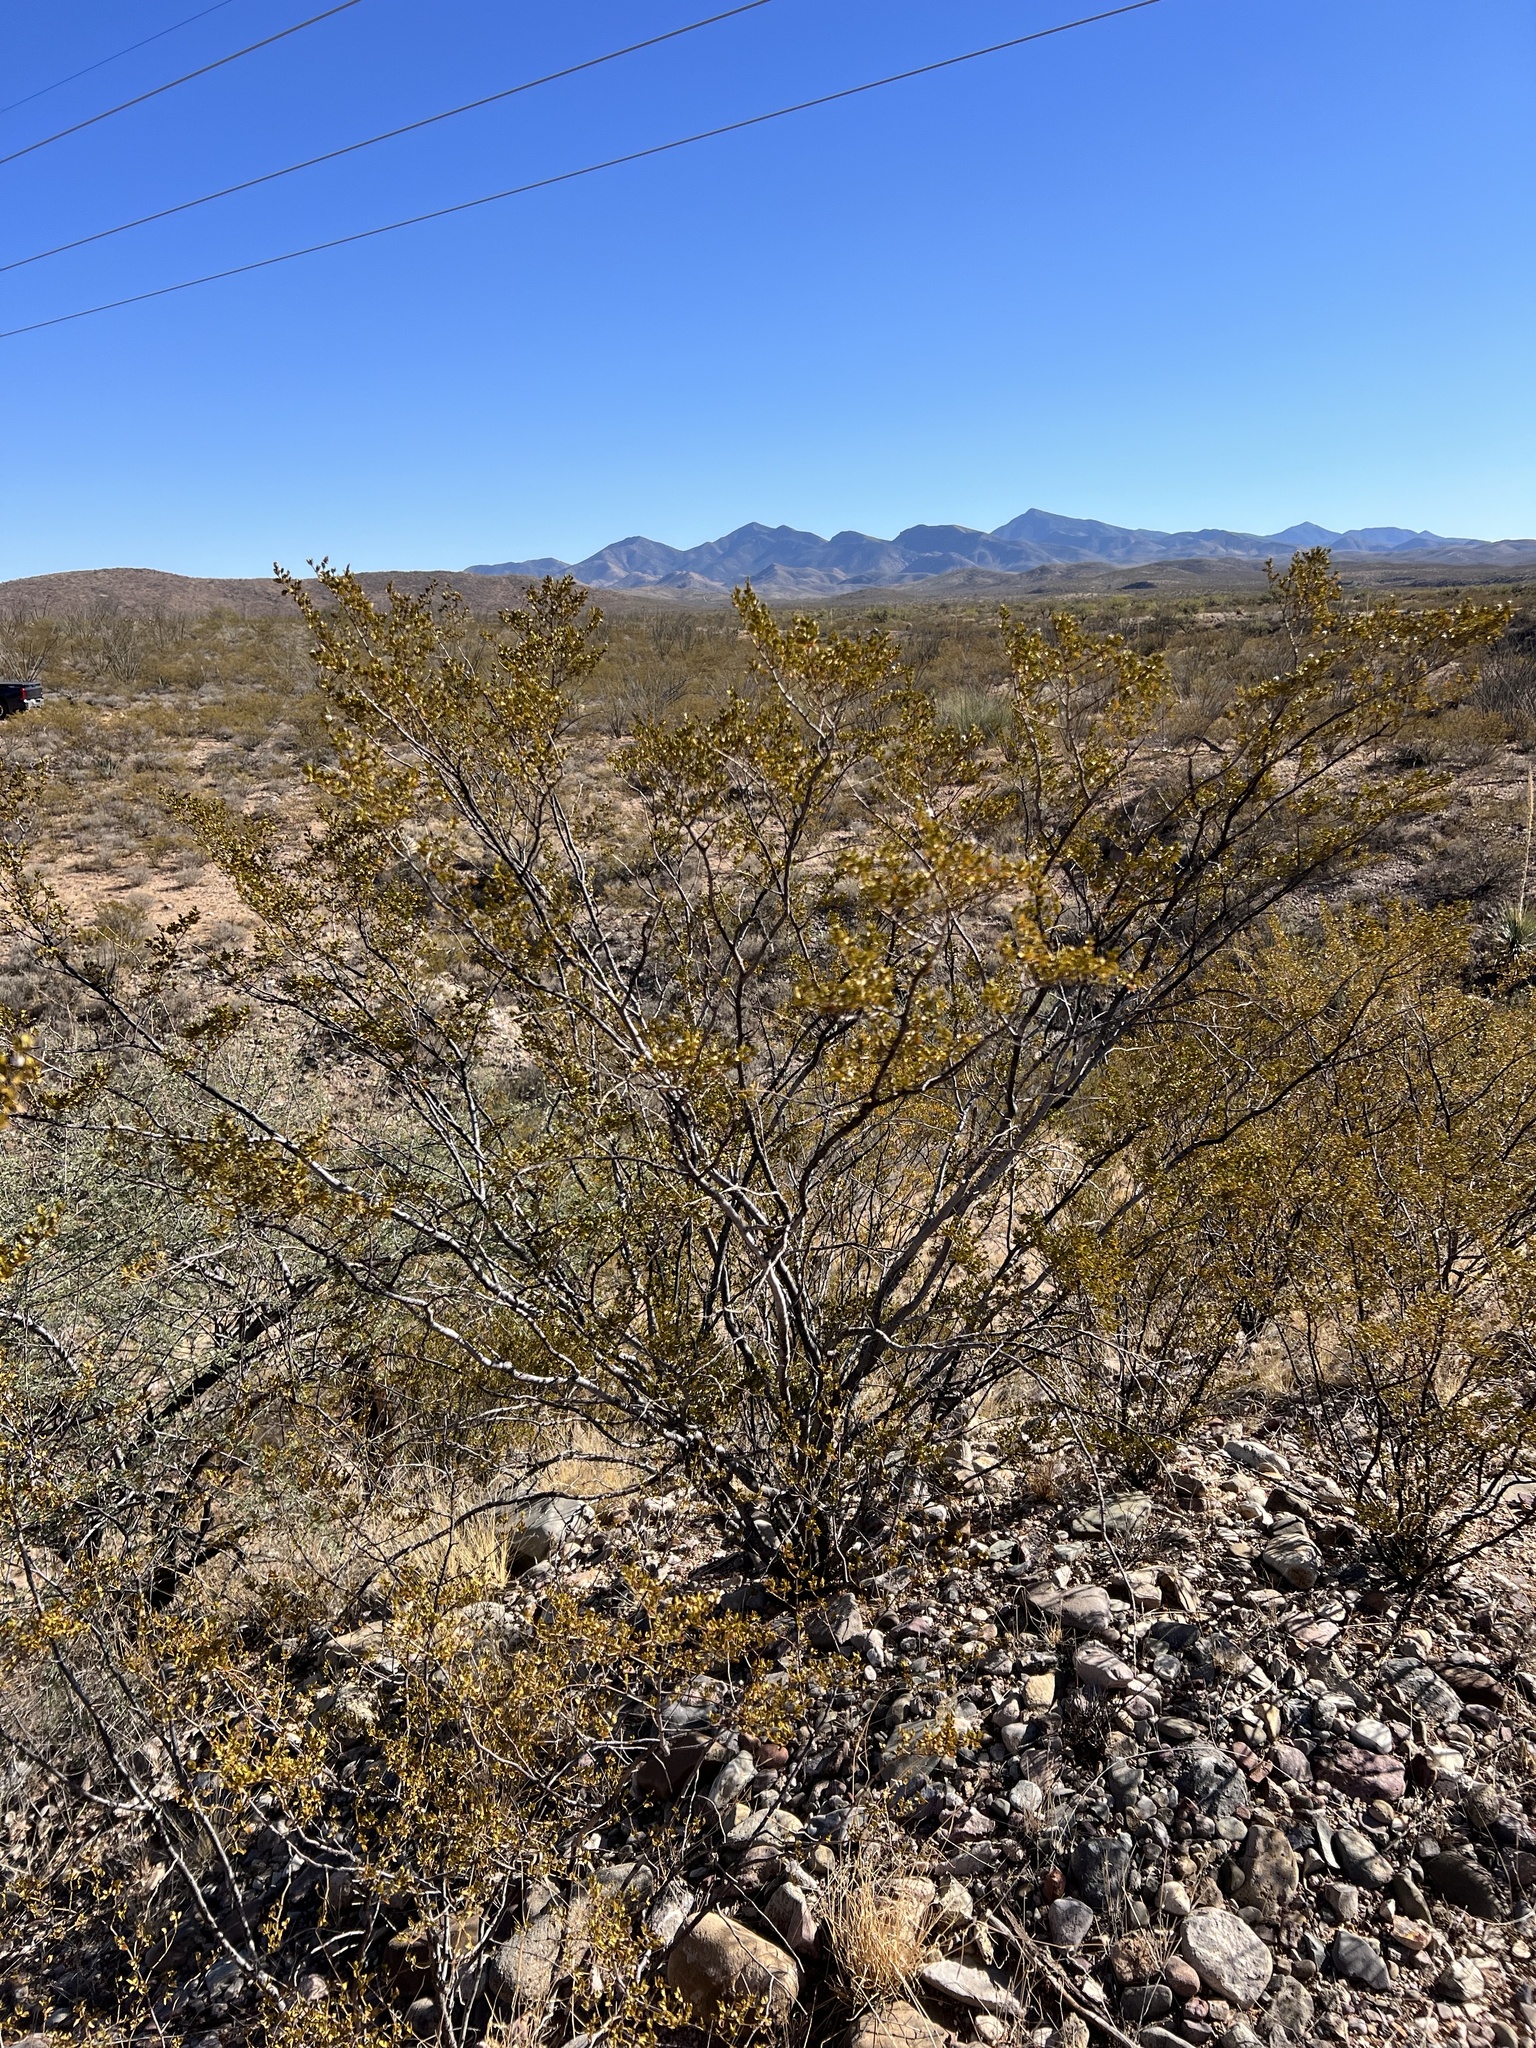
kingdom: Plantae
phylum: Tracheophyta
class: Magnoliopsida
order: Zygophyllales
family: Zygophyllaceae
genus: Larrea
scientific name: Larrea tridentata
